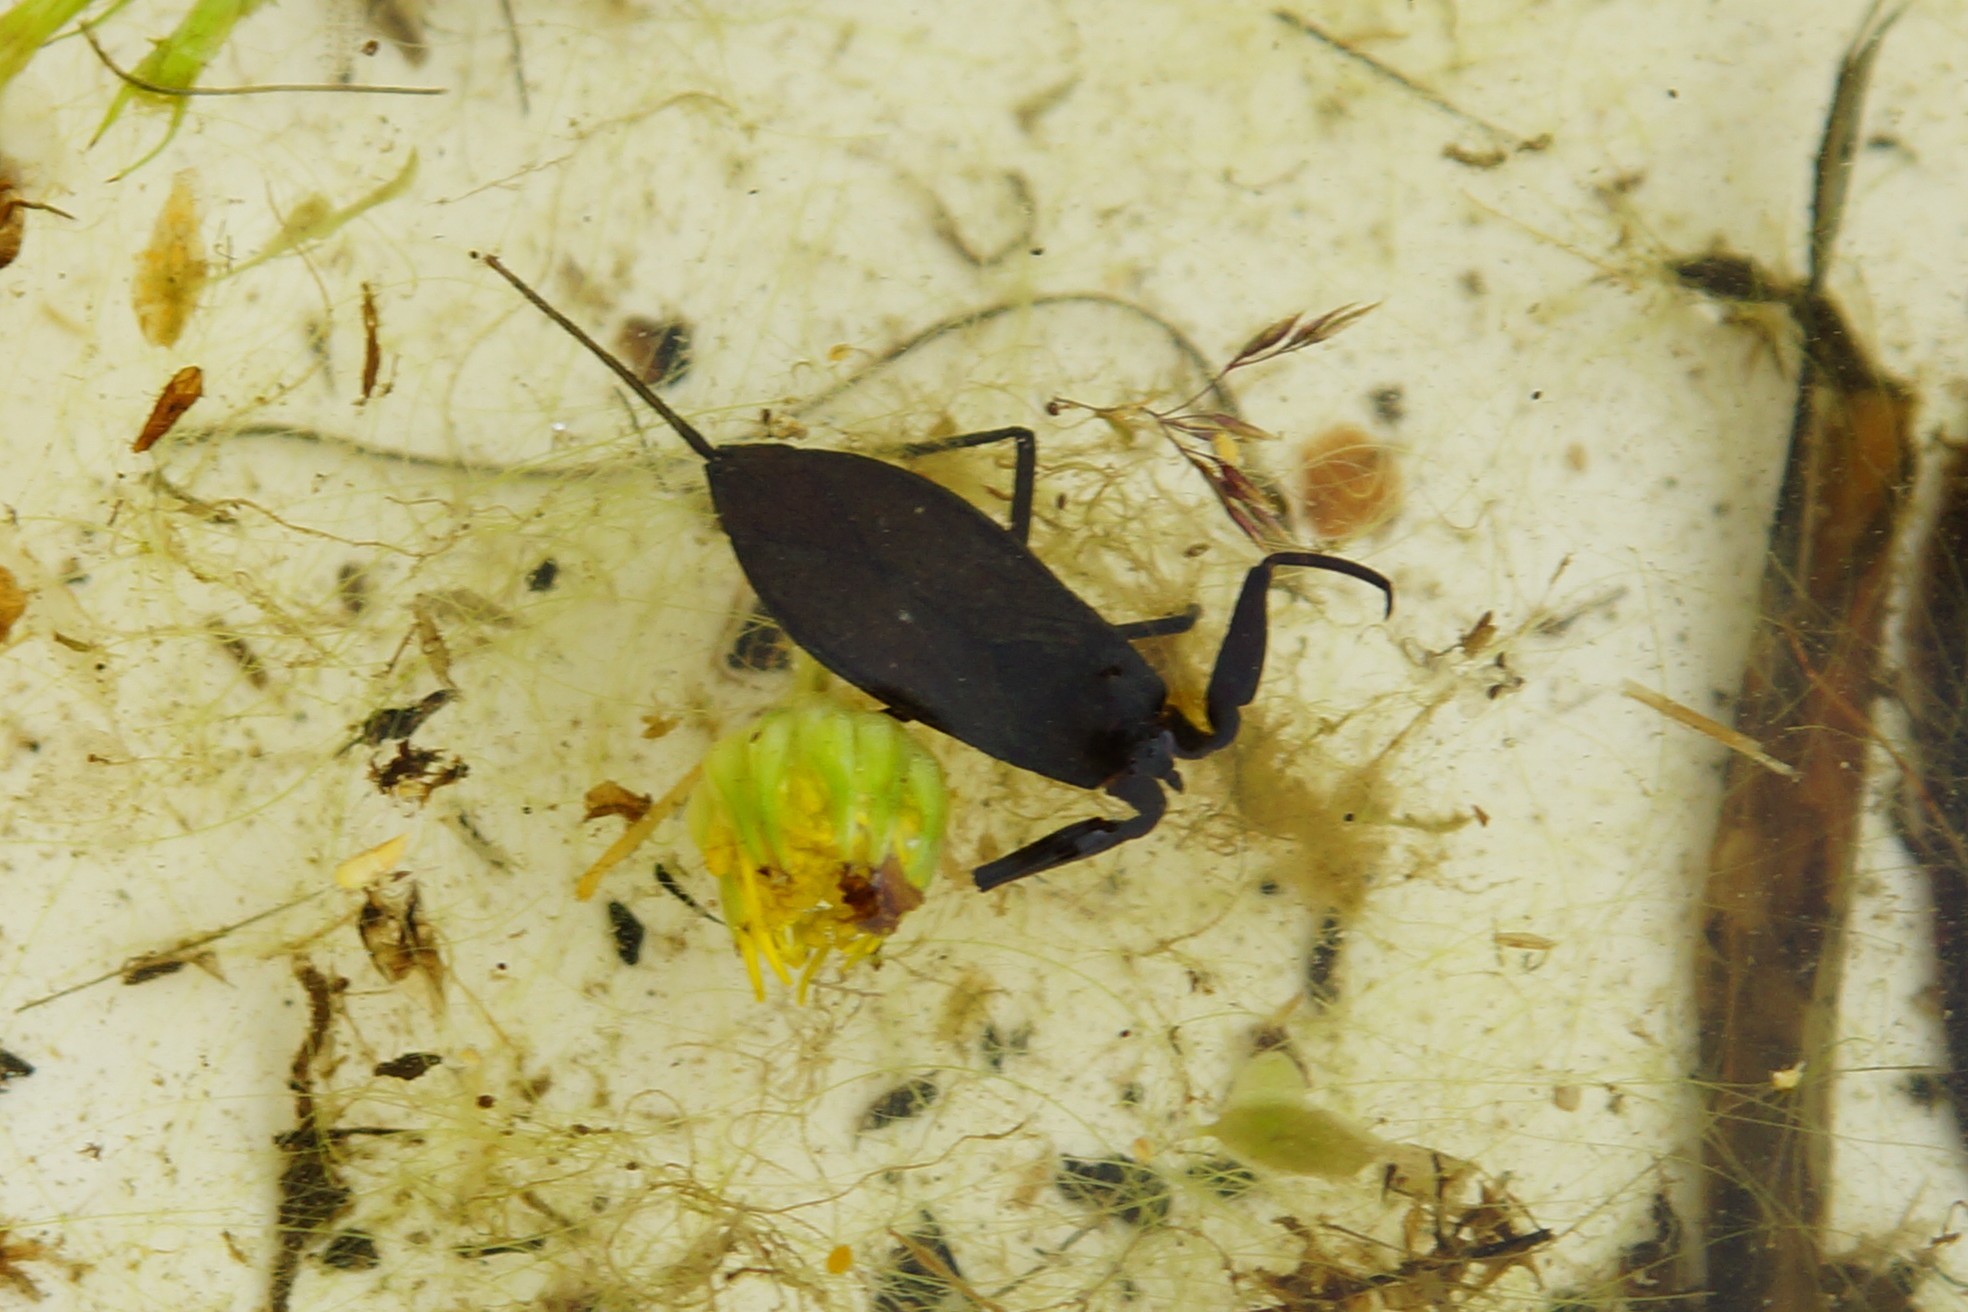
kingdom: Animalia
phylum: Arthropoda
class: Insecta
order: Hemiptera
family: Nepidae
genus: Nepa
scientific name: Nepa cinerea
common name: Water scorpion
